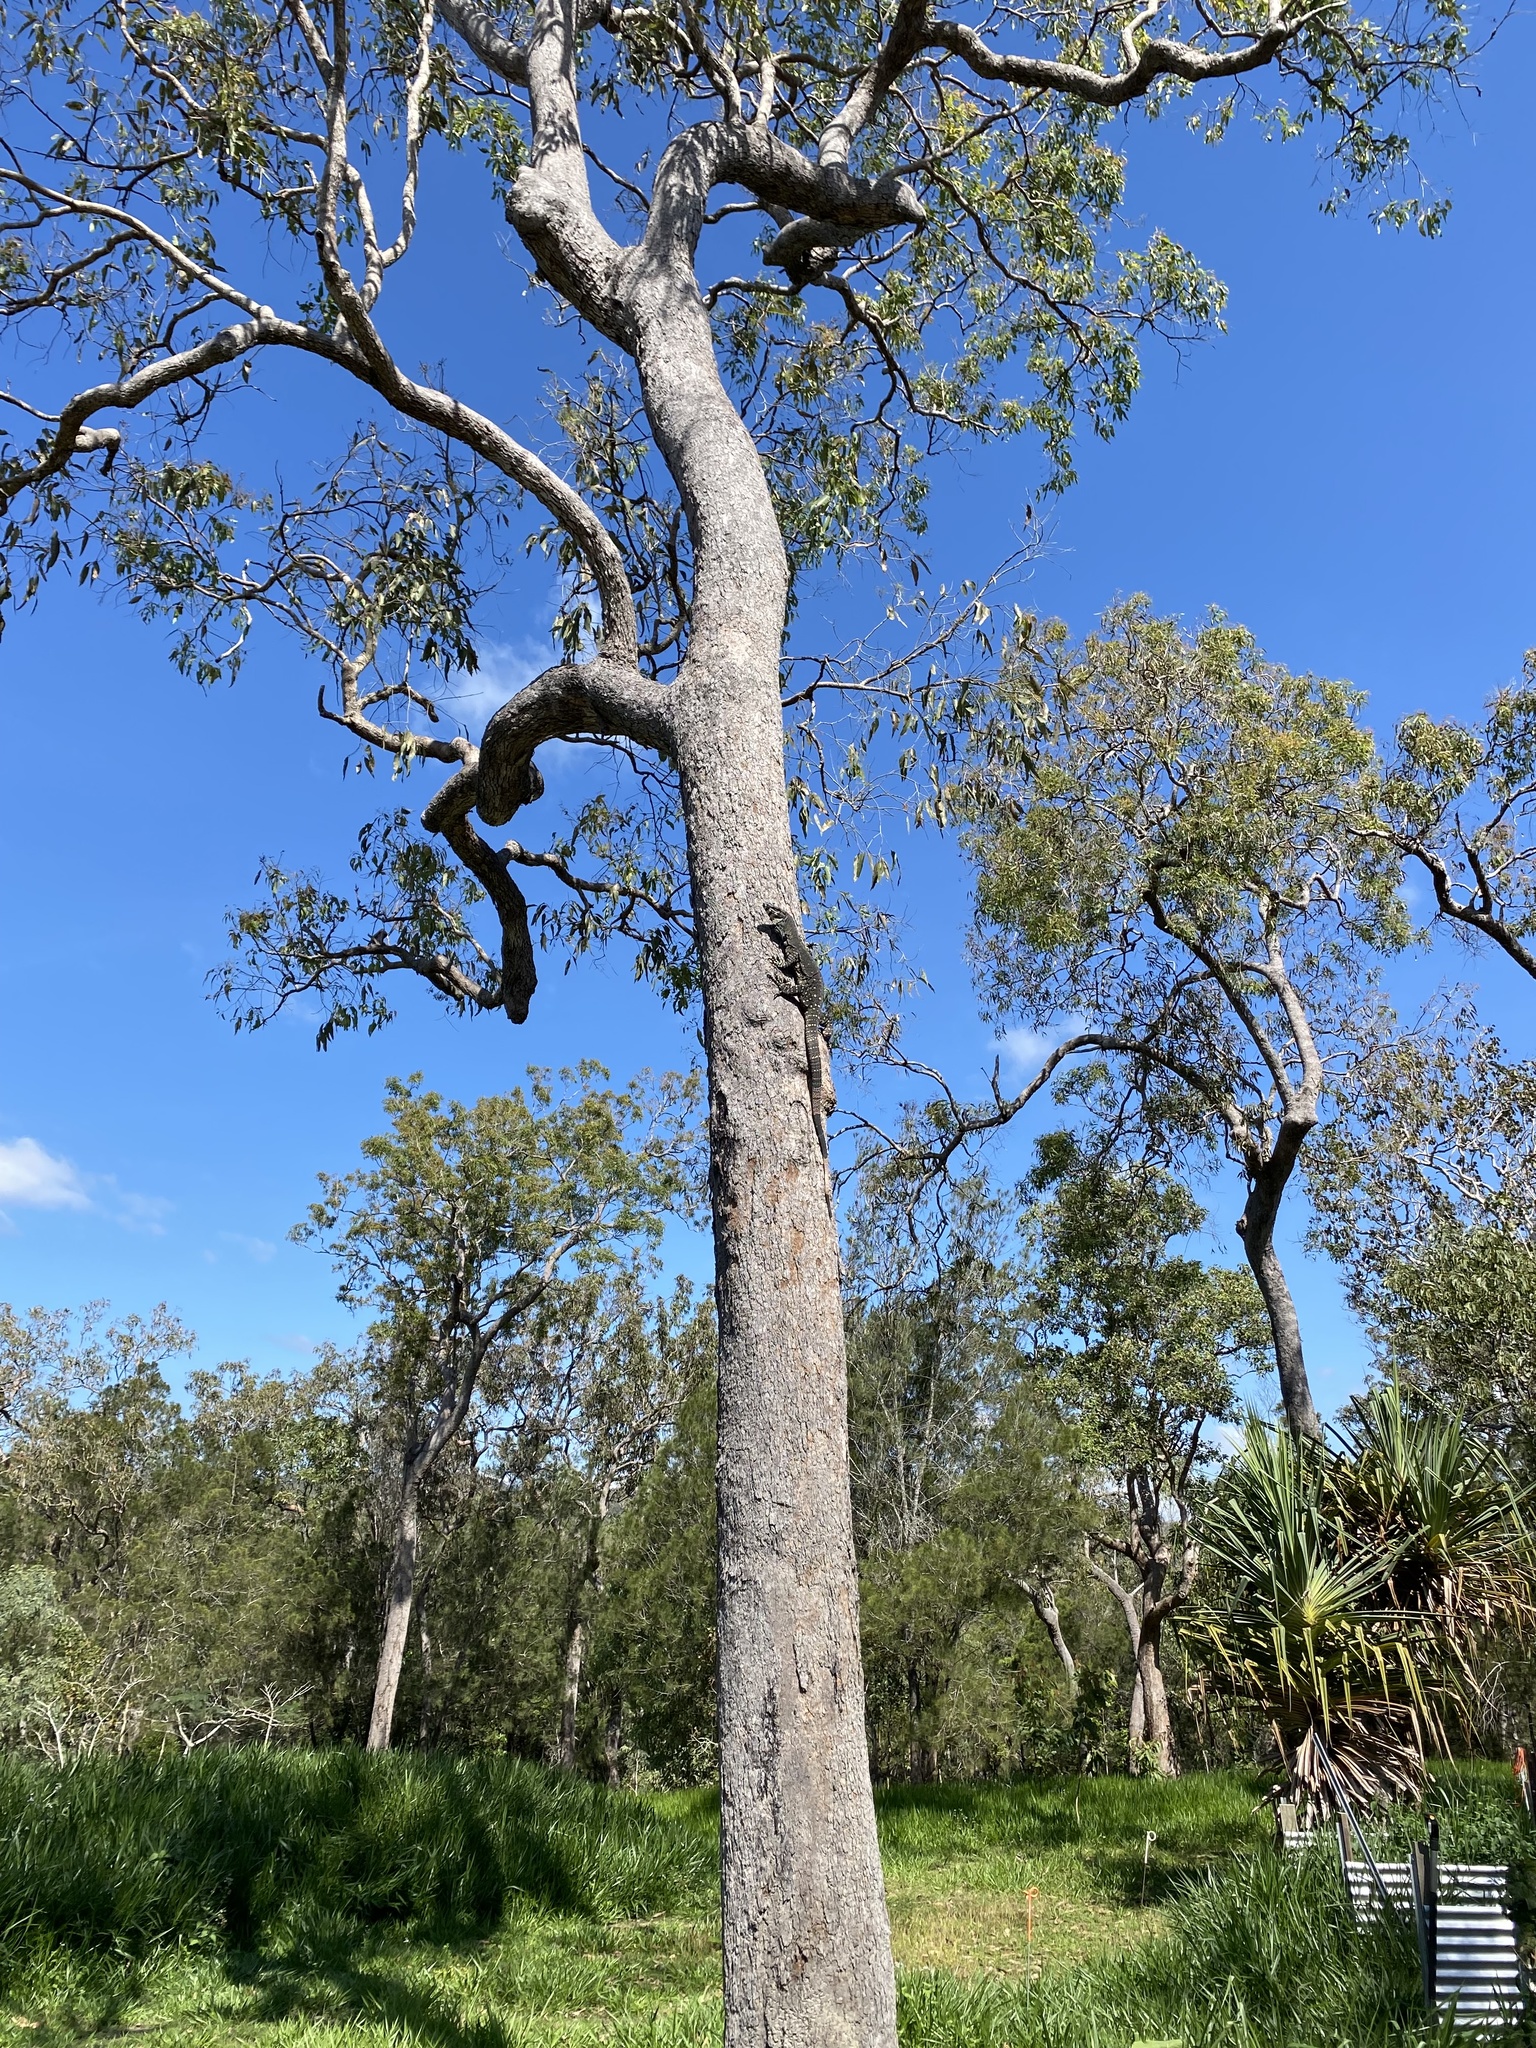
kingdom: Animalia
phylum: Chordata
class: Squamata
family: Varanidae
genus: Varanus
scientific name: Varanus varius
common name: Lace monitor
